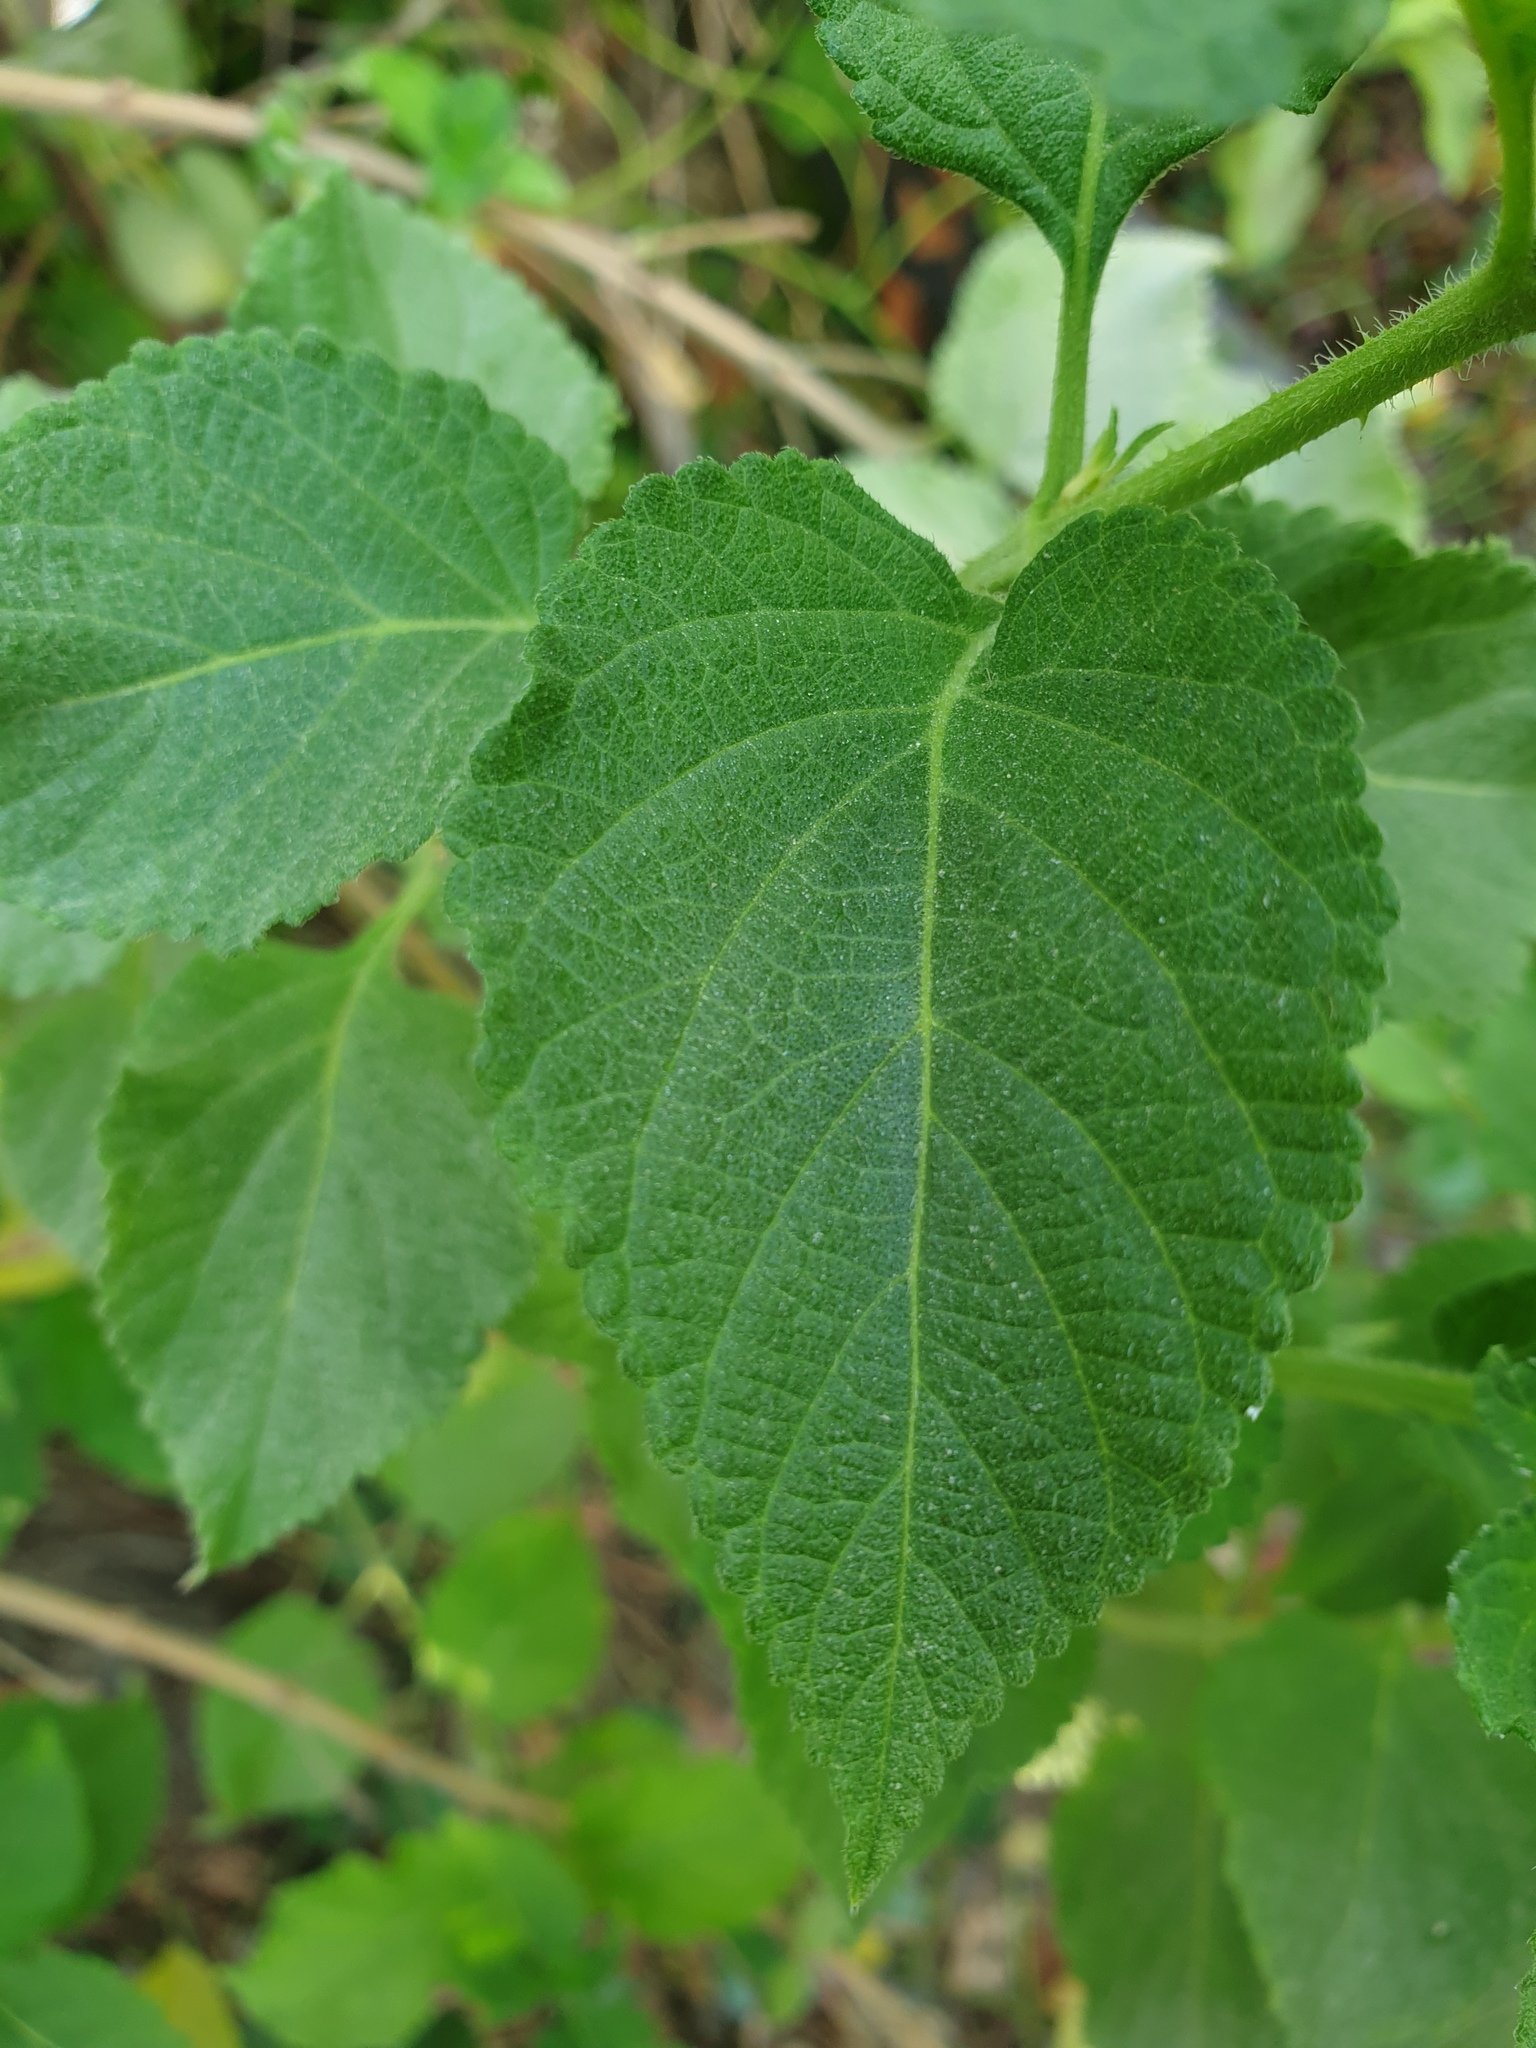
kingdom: Plantae
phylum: Tracheophyta
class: Magnoliopsida
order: Lamiales
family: Verbenaceae
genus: Lantana
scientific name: Lantana camara
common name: Lantana
